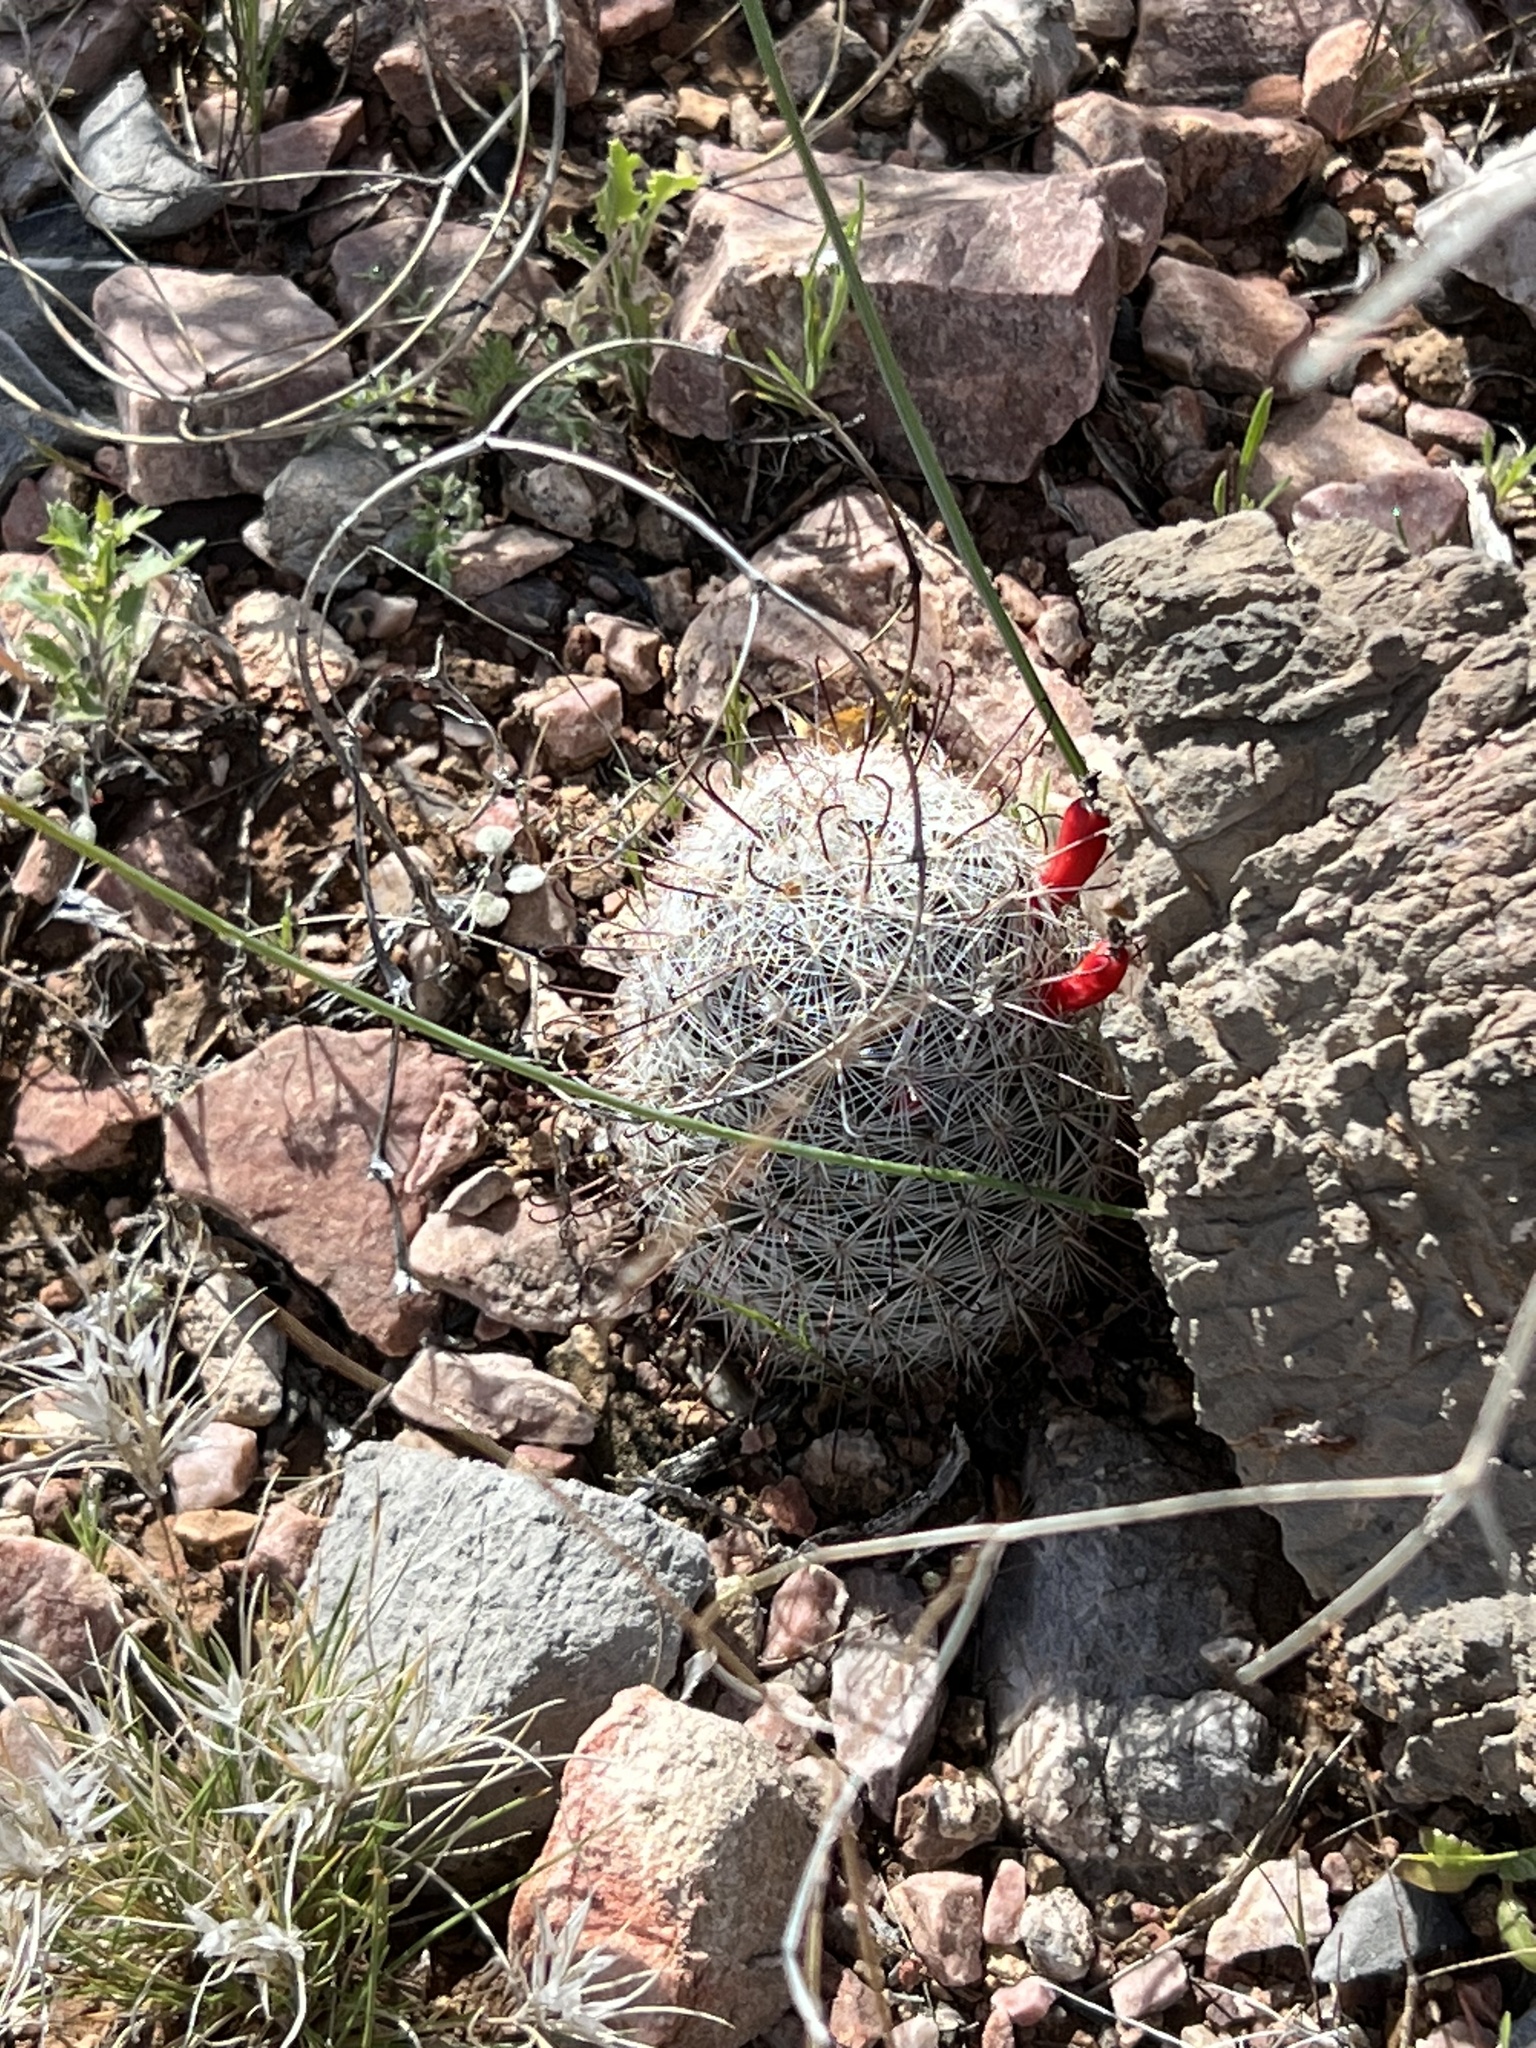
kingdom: Plantae
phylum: Tracheophyta
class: Magnoliopsida
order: Caryophyllales
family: Cactaceae
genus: Cochemiea
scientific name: Cochemiea grahamii
